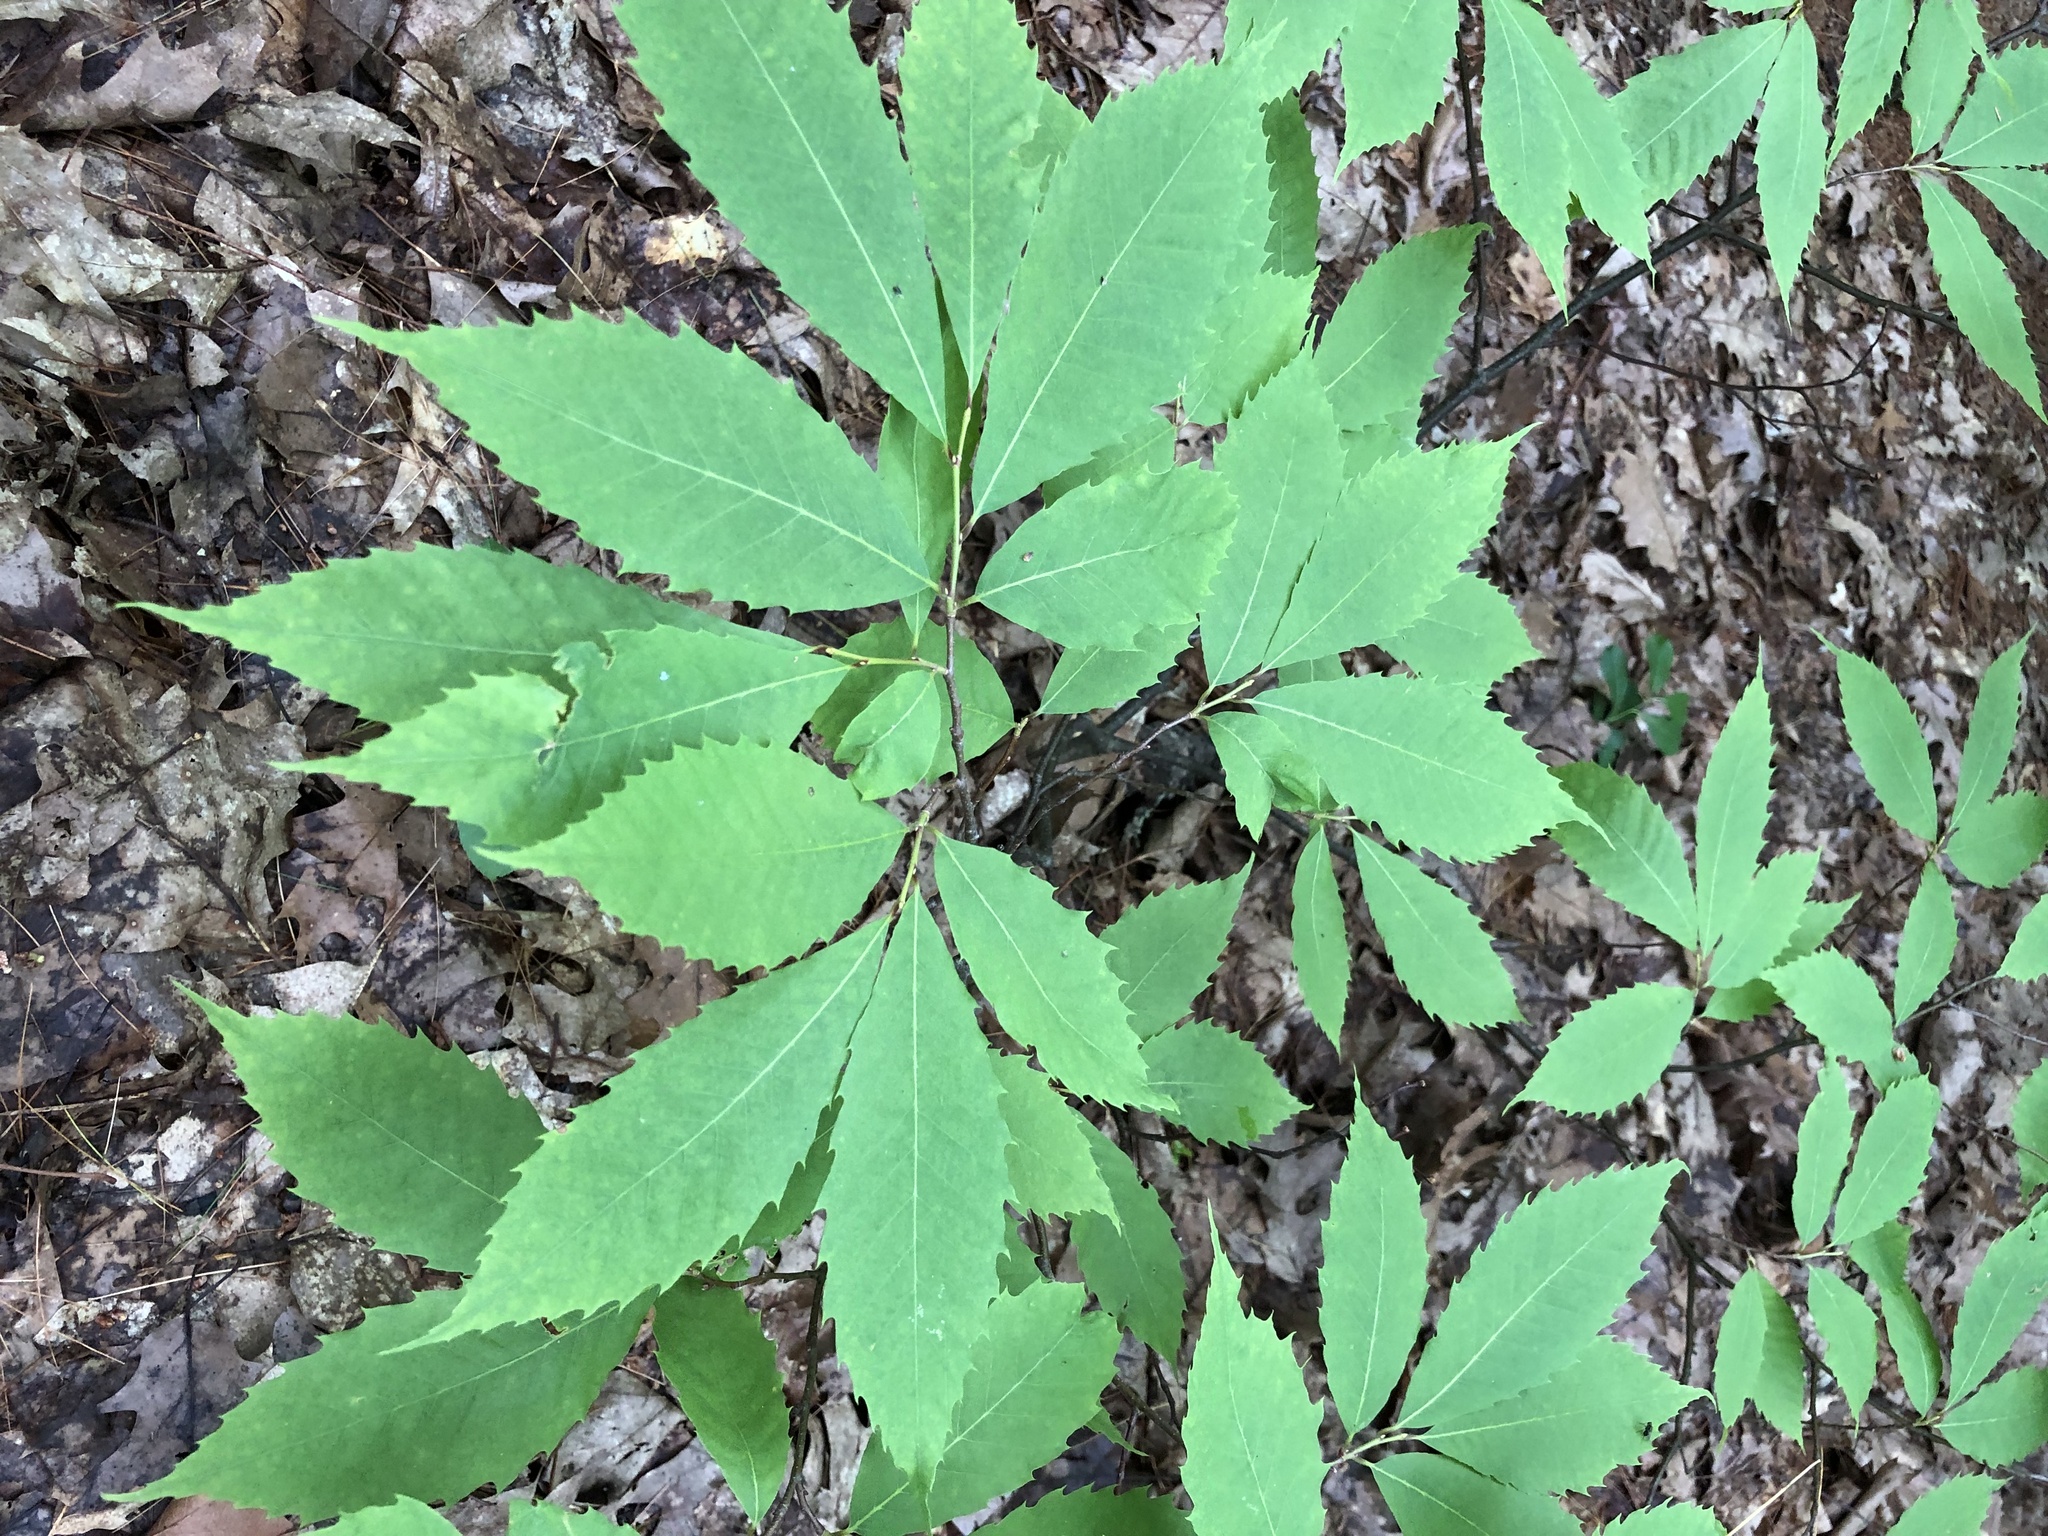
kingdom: Plantae
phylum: Tracheophyta
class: Magnoliopsida
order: Fagales
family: Fagaceae
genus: Castanea
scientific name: Castanea dentata
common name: American chestnut
